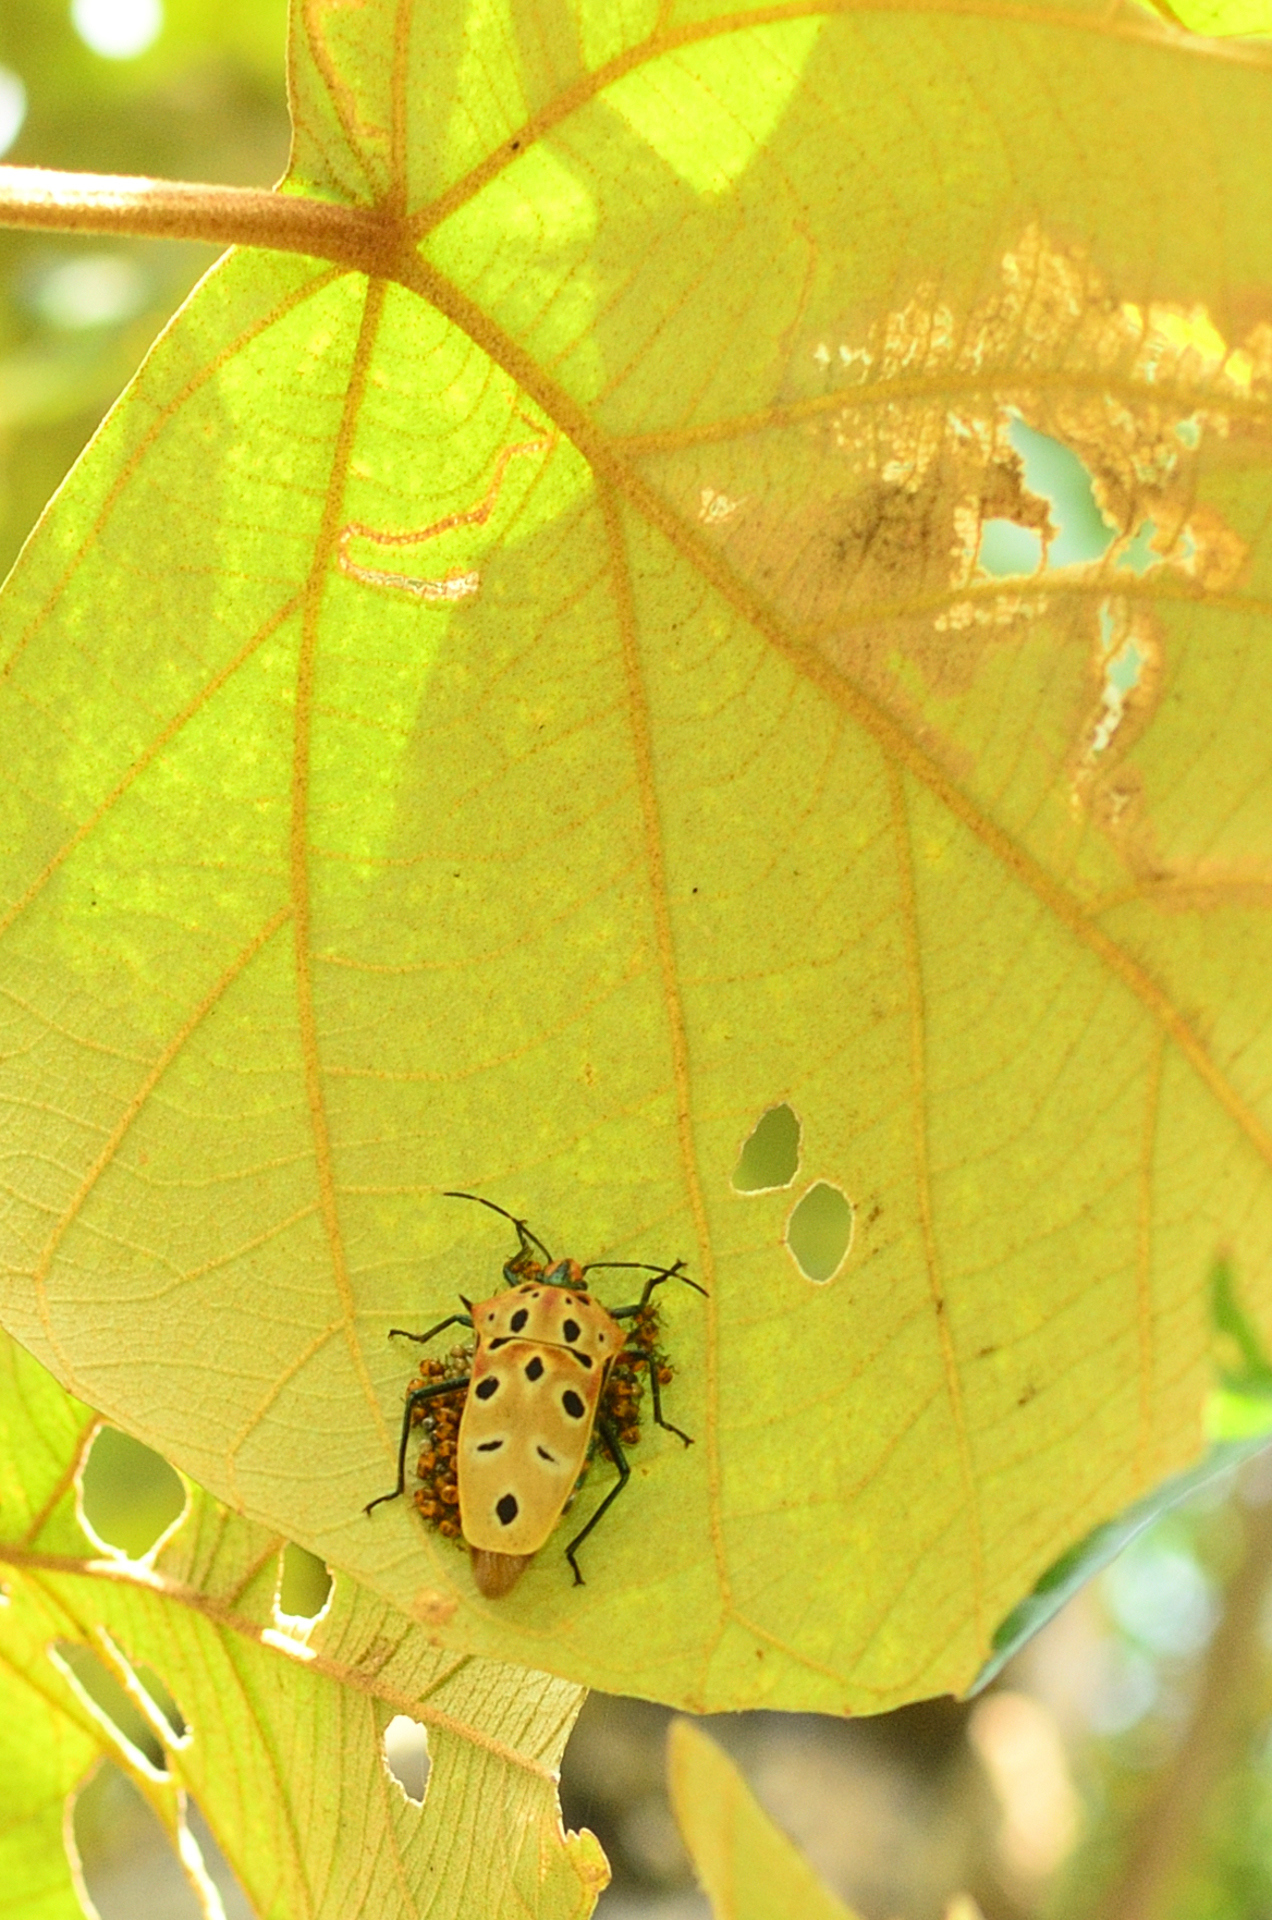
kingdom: Animalia
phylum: Arthropoda
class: Insecta
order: Hemiptera
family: Scutelleridae
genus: Cantao
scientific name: Cantao ocellatus
